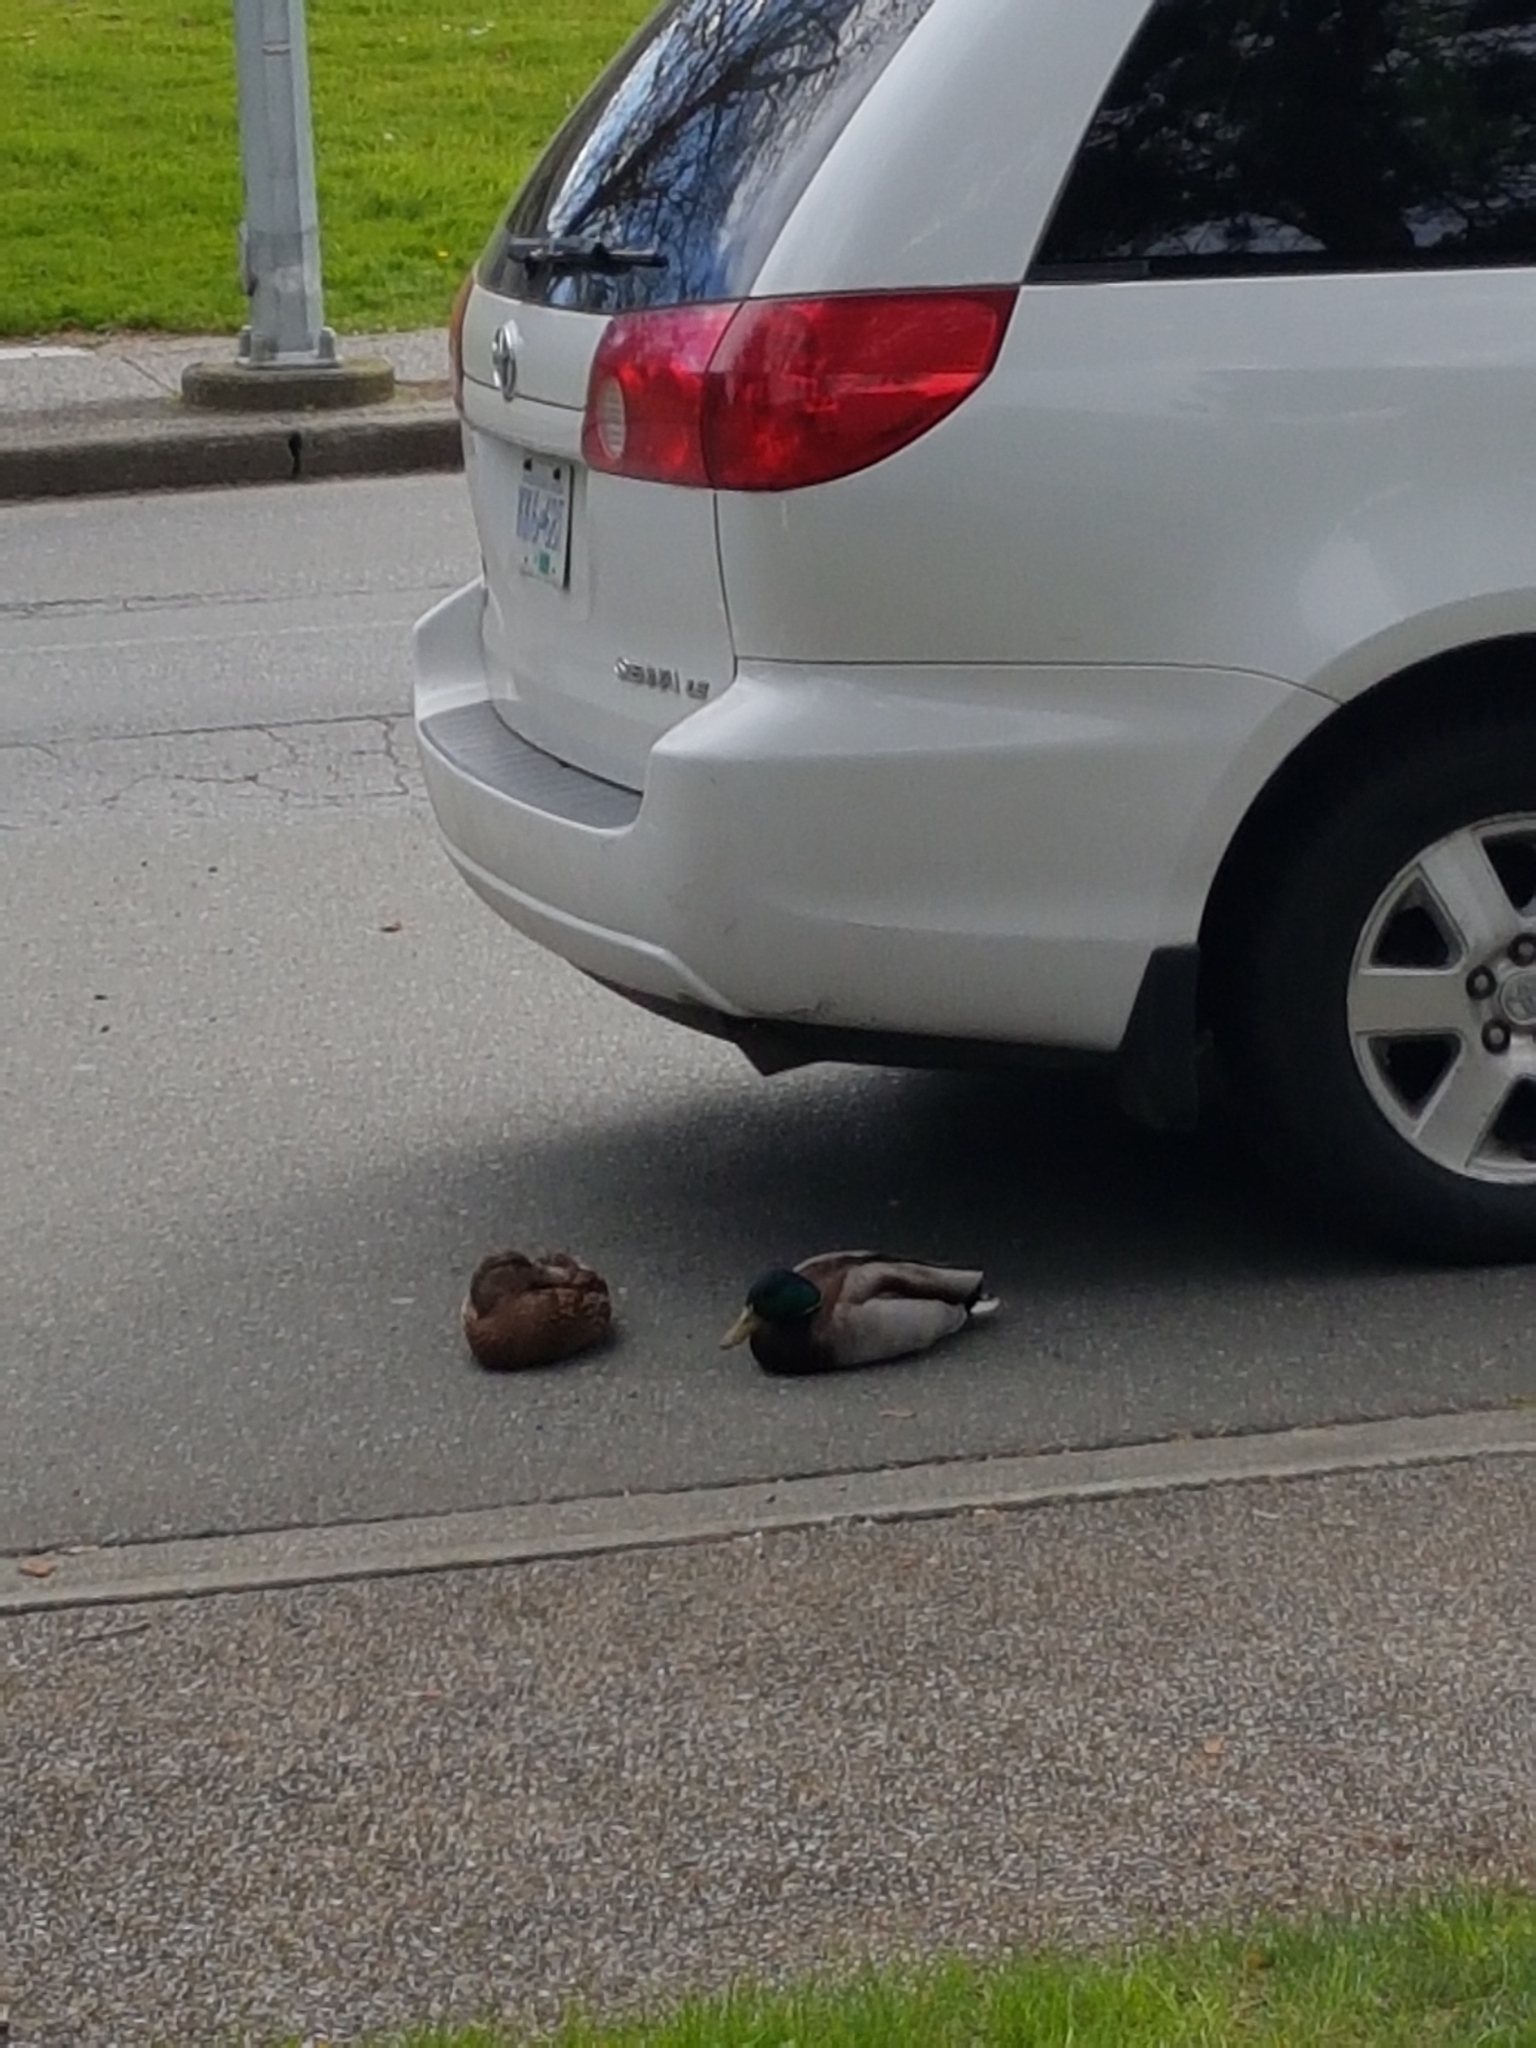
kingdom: Animalia
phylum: Chordata
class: Aves
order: Anseriformes
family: Anatidae
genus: Anas
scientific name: Anas platyrhynchos
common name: Mallard
